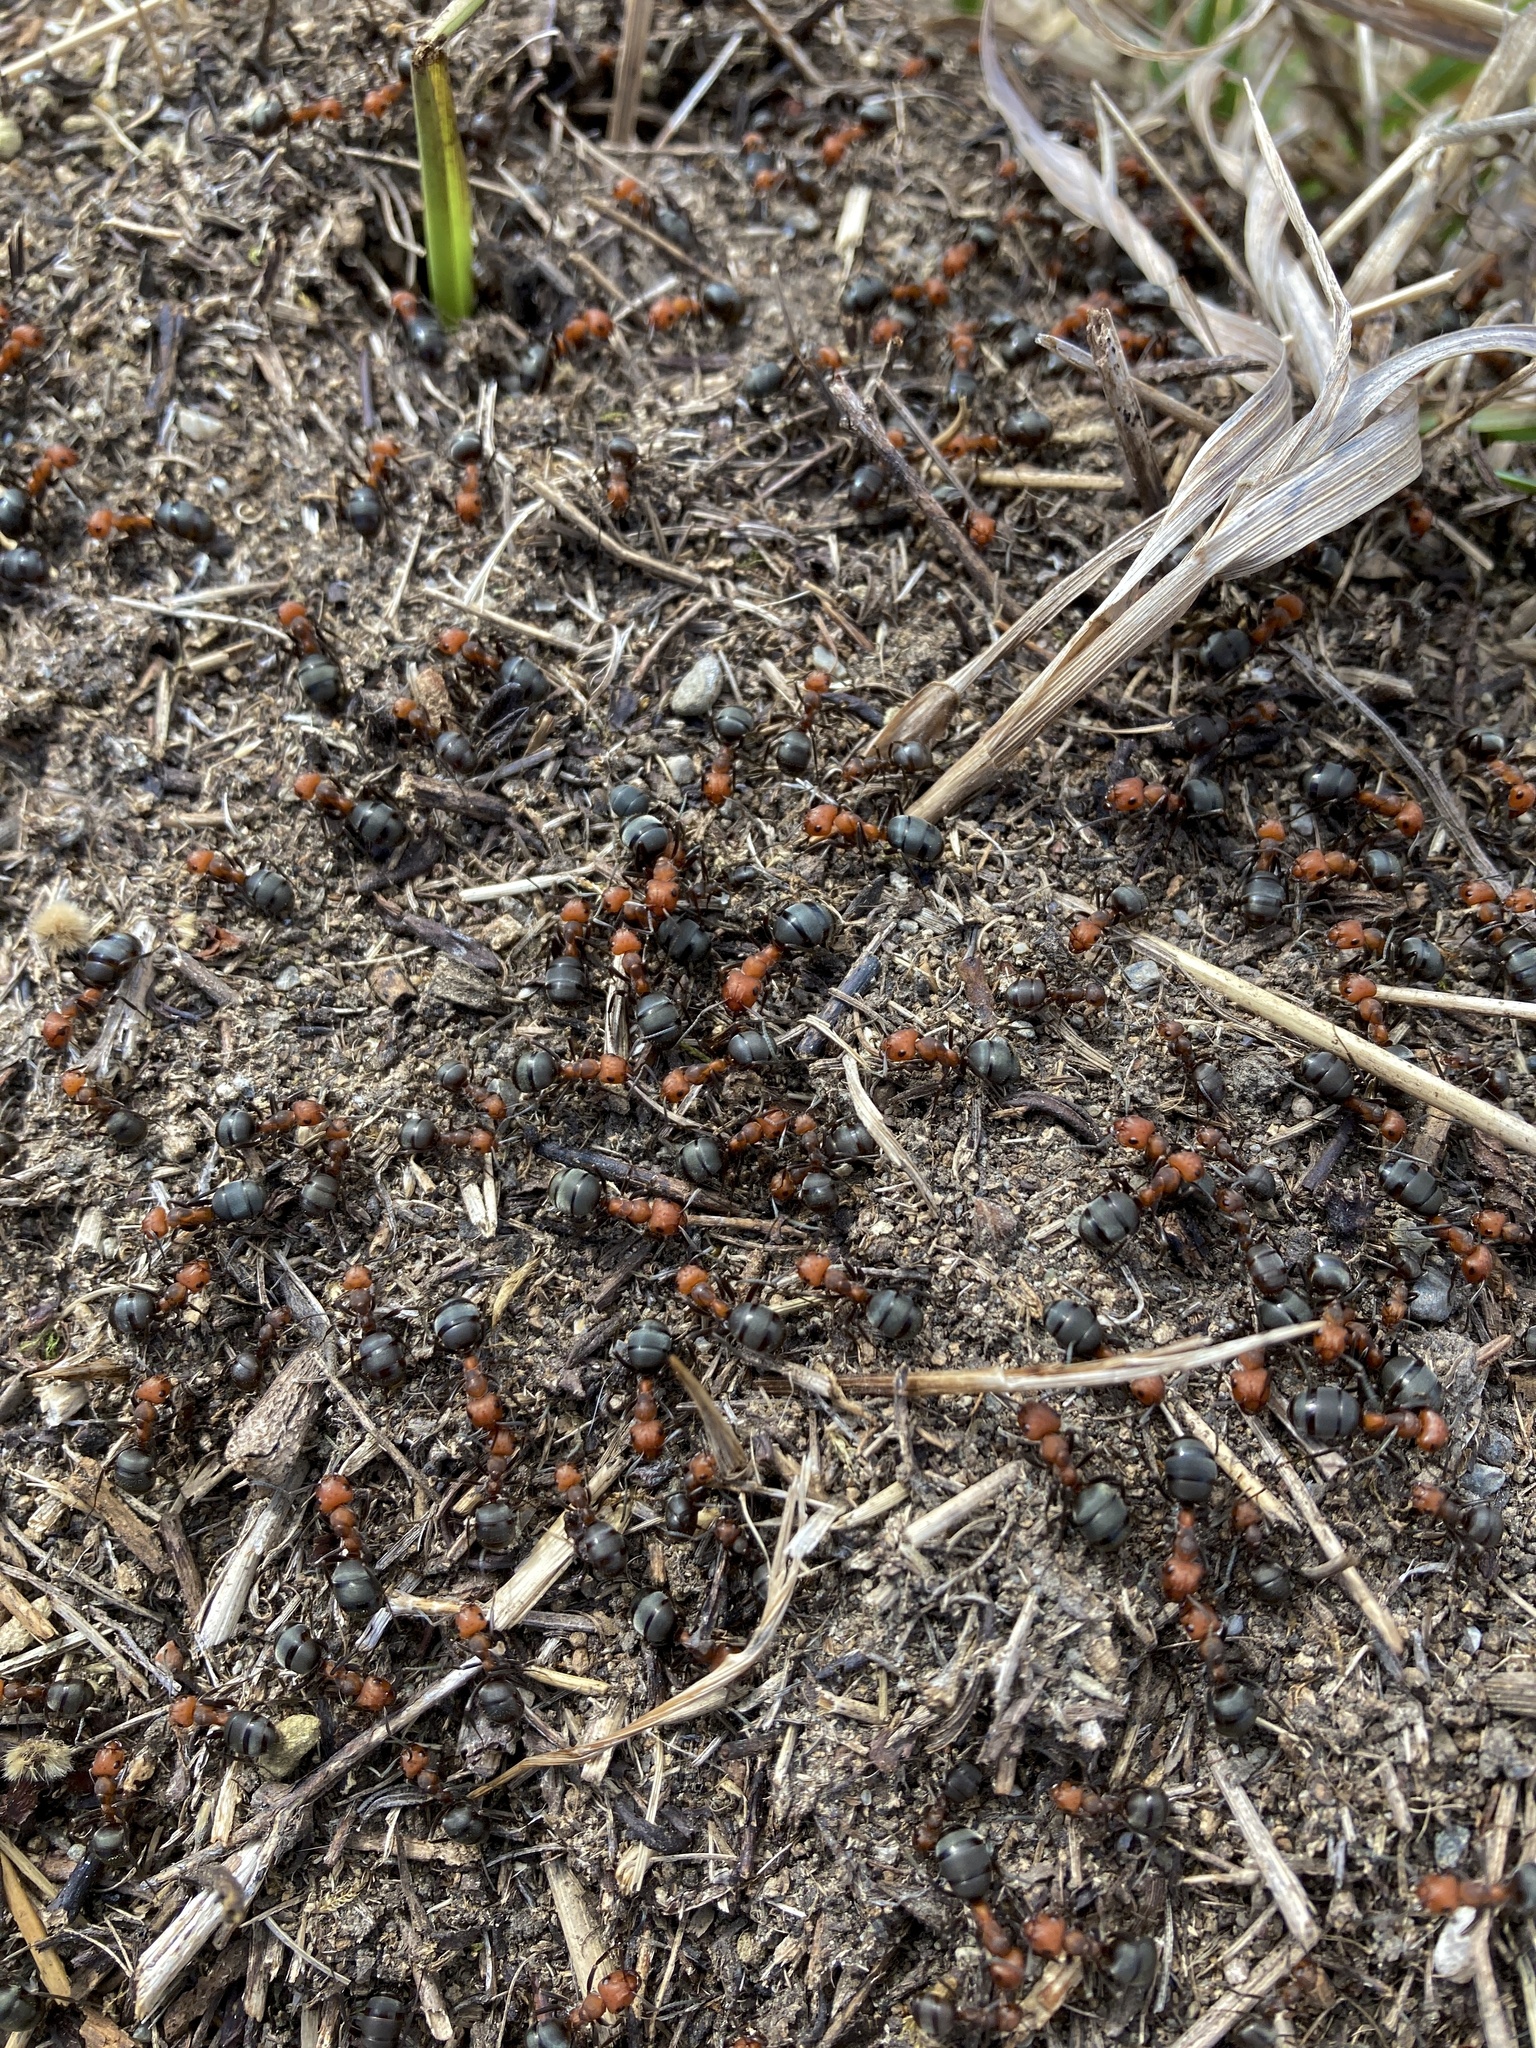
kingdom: Animalia
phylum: Arthropoda
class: Insecta
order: Hymenoptera
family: Formicidae
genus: Formica
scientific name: Formica obscuripes
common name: Western thatching ant
